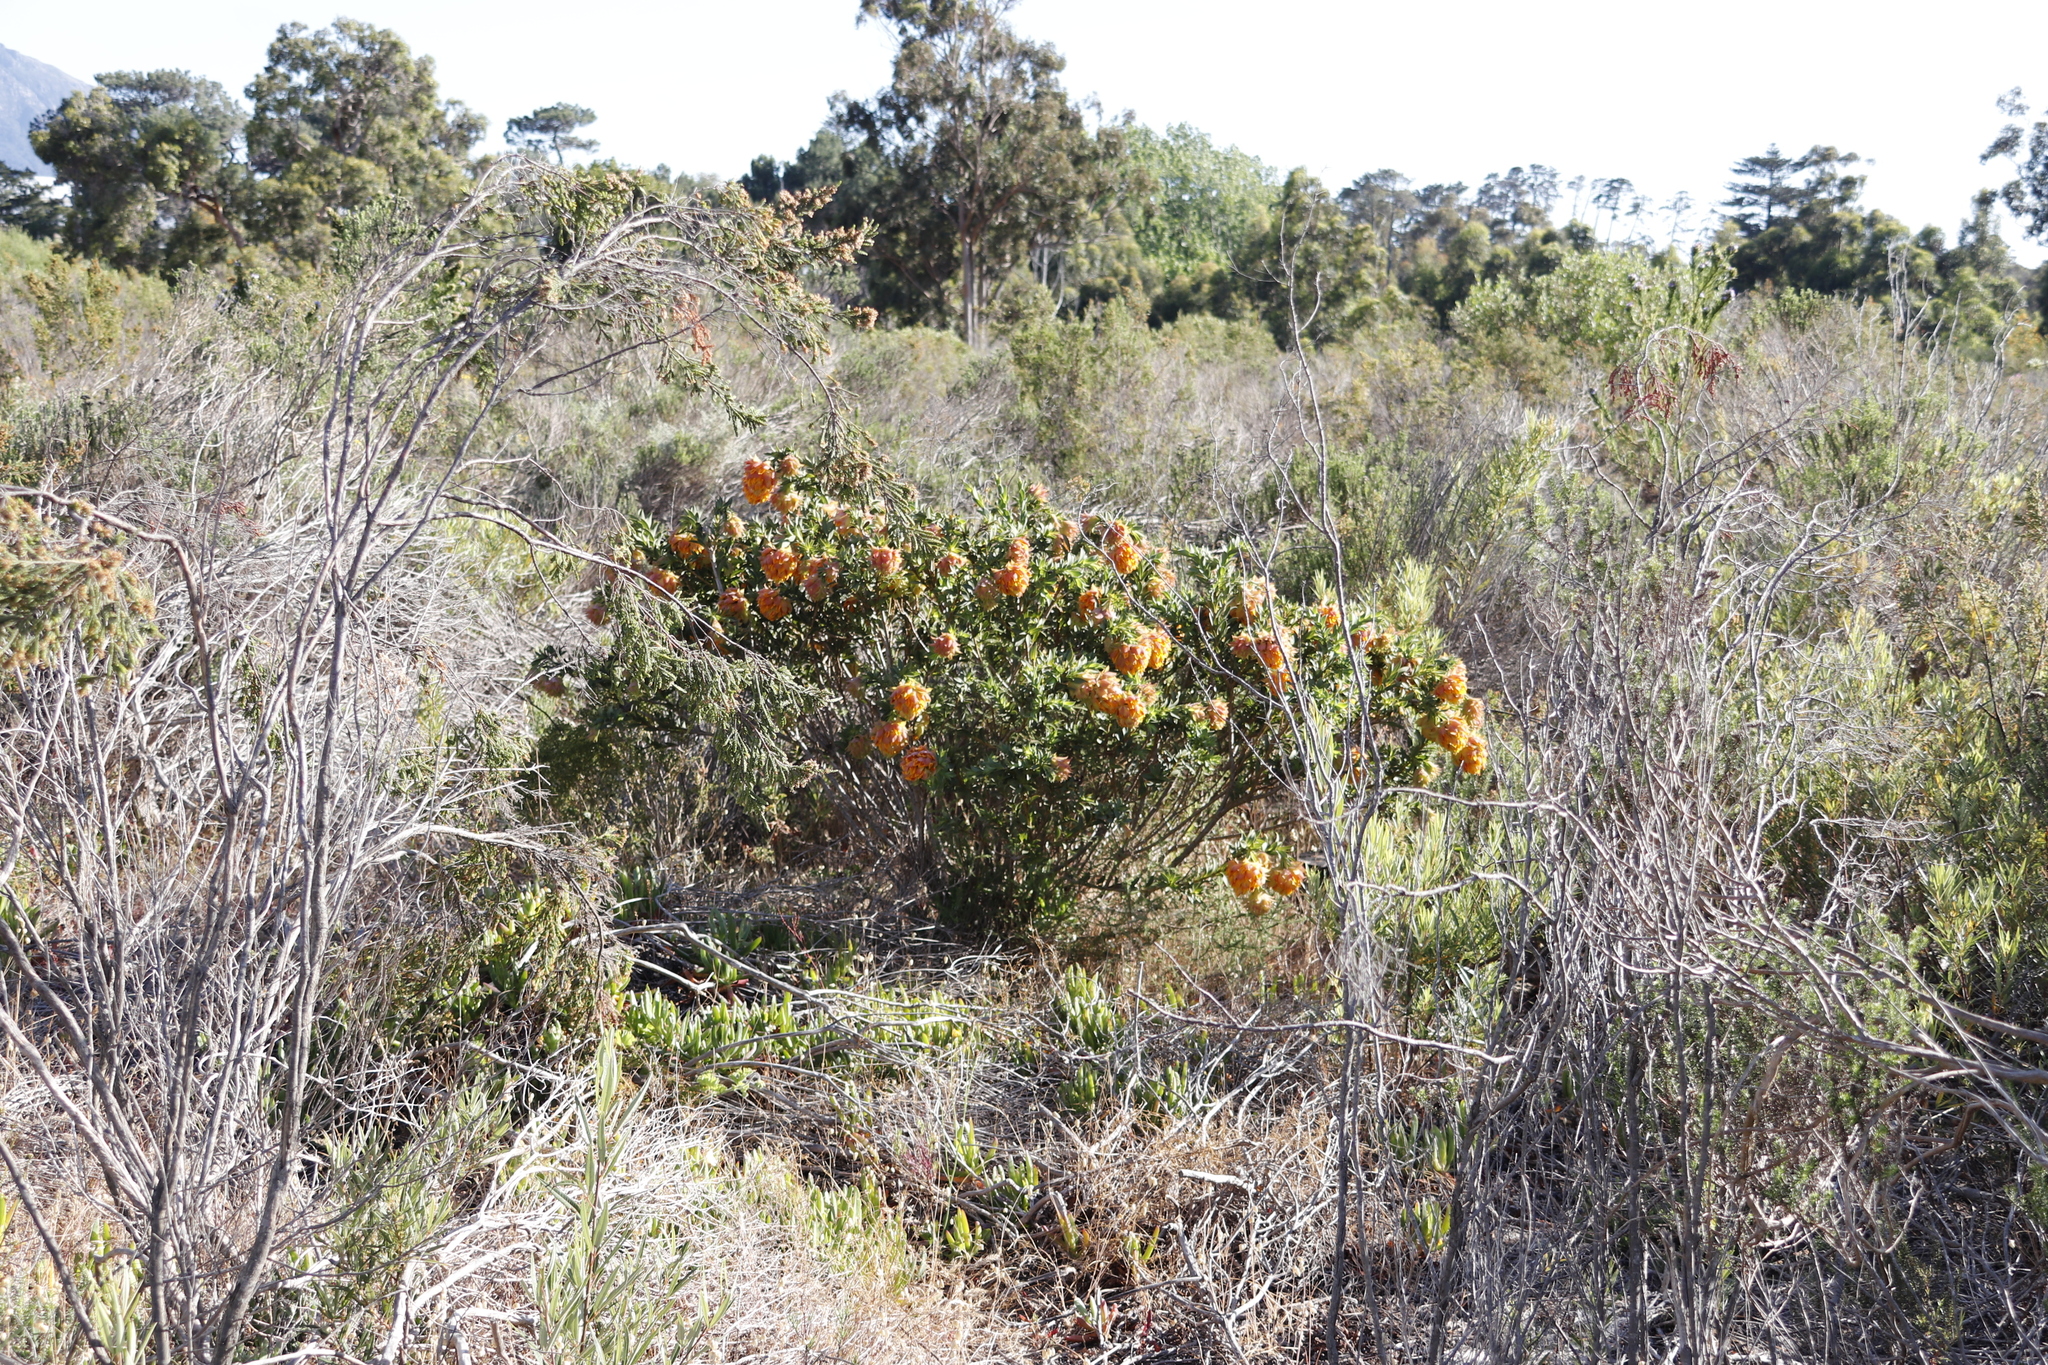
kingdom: Plantae
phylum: Tracheophyta
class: Magnoliopsida
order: Fabales
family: Fabaceae
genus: Liparia
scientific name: Liparia splendens
